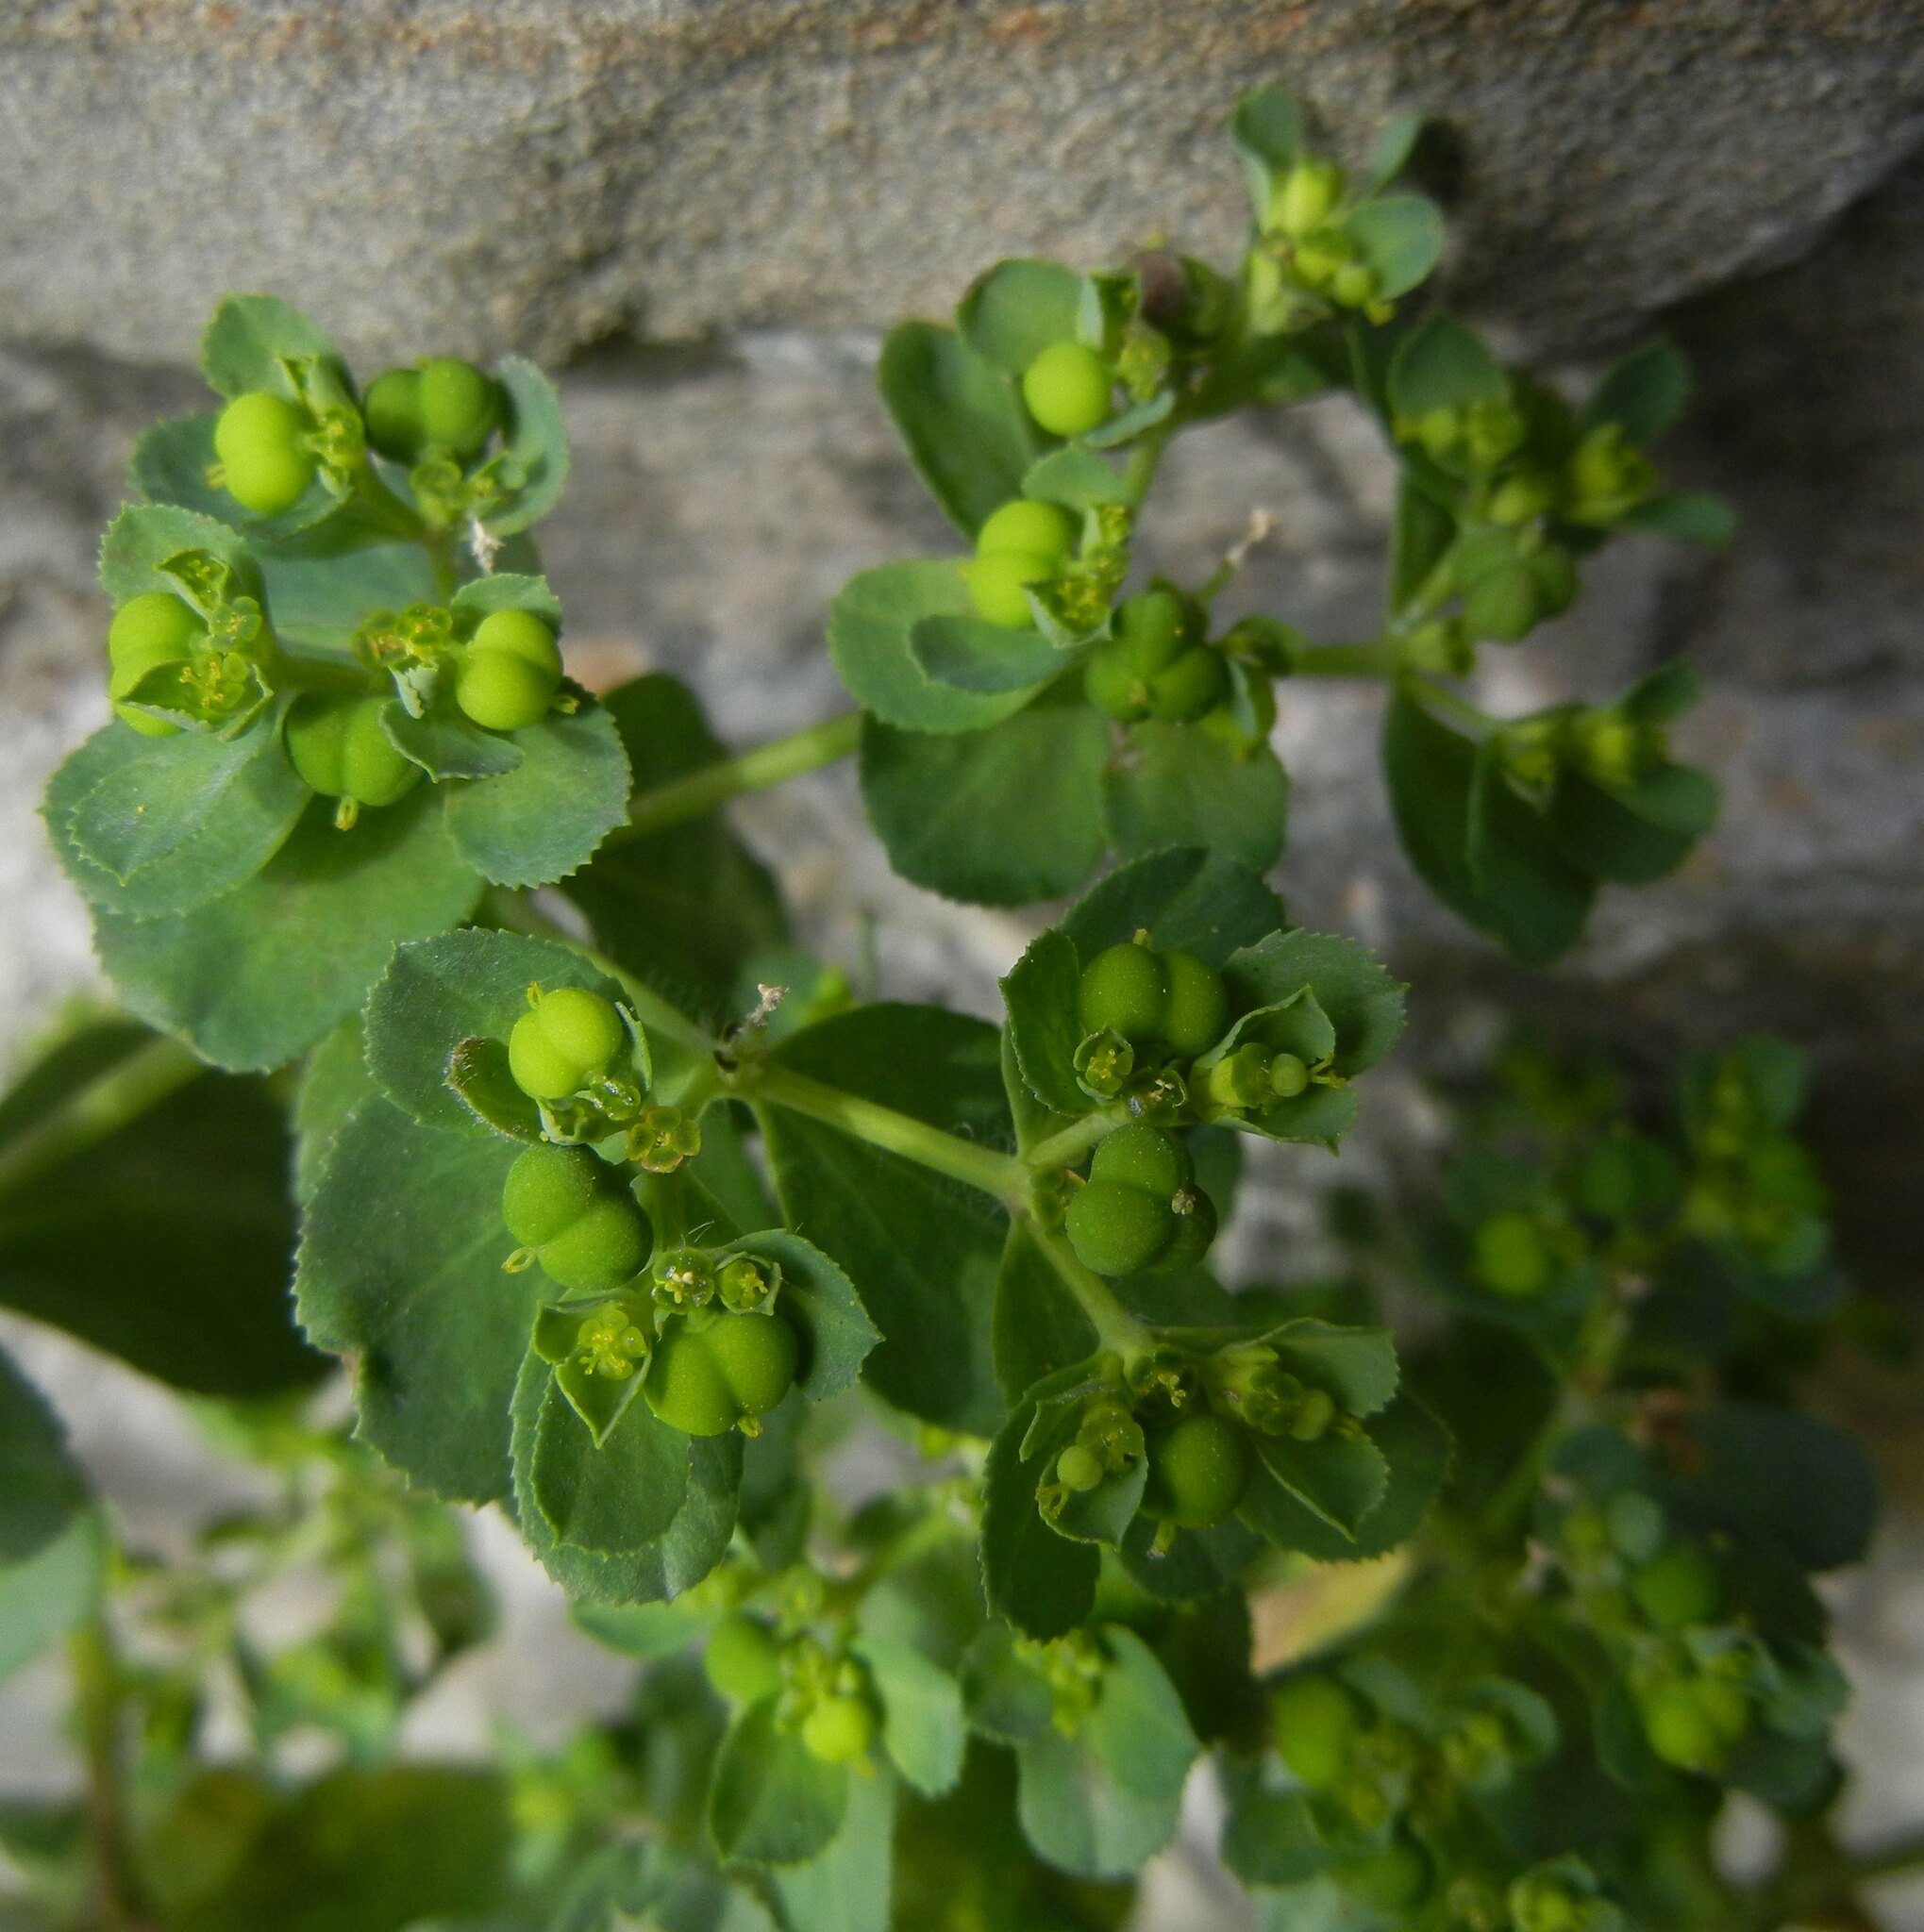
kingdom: Plantae
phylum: Tracheophyta
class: Magnoliopsida
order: Malpighiales
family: Euphorbiaceae
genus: Euphorbia
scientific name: Euphorbia helioscopia
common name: Sun spurge
